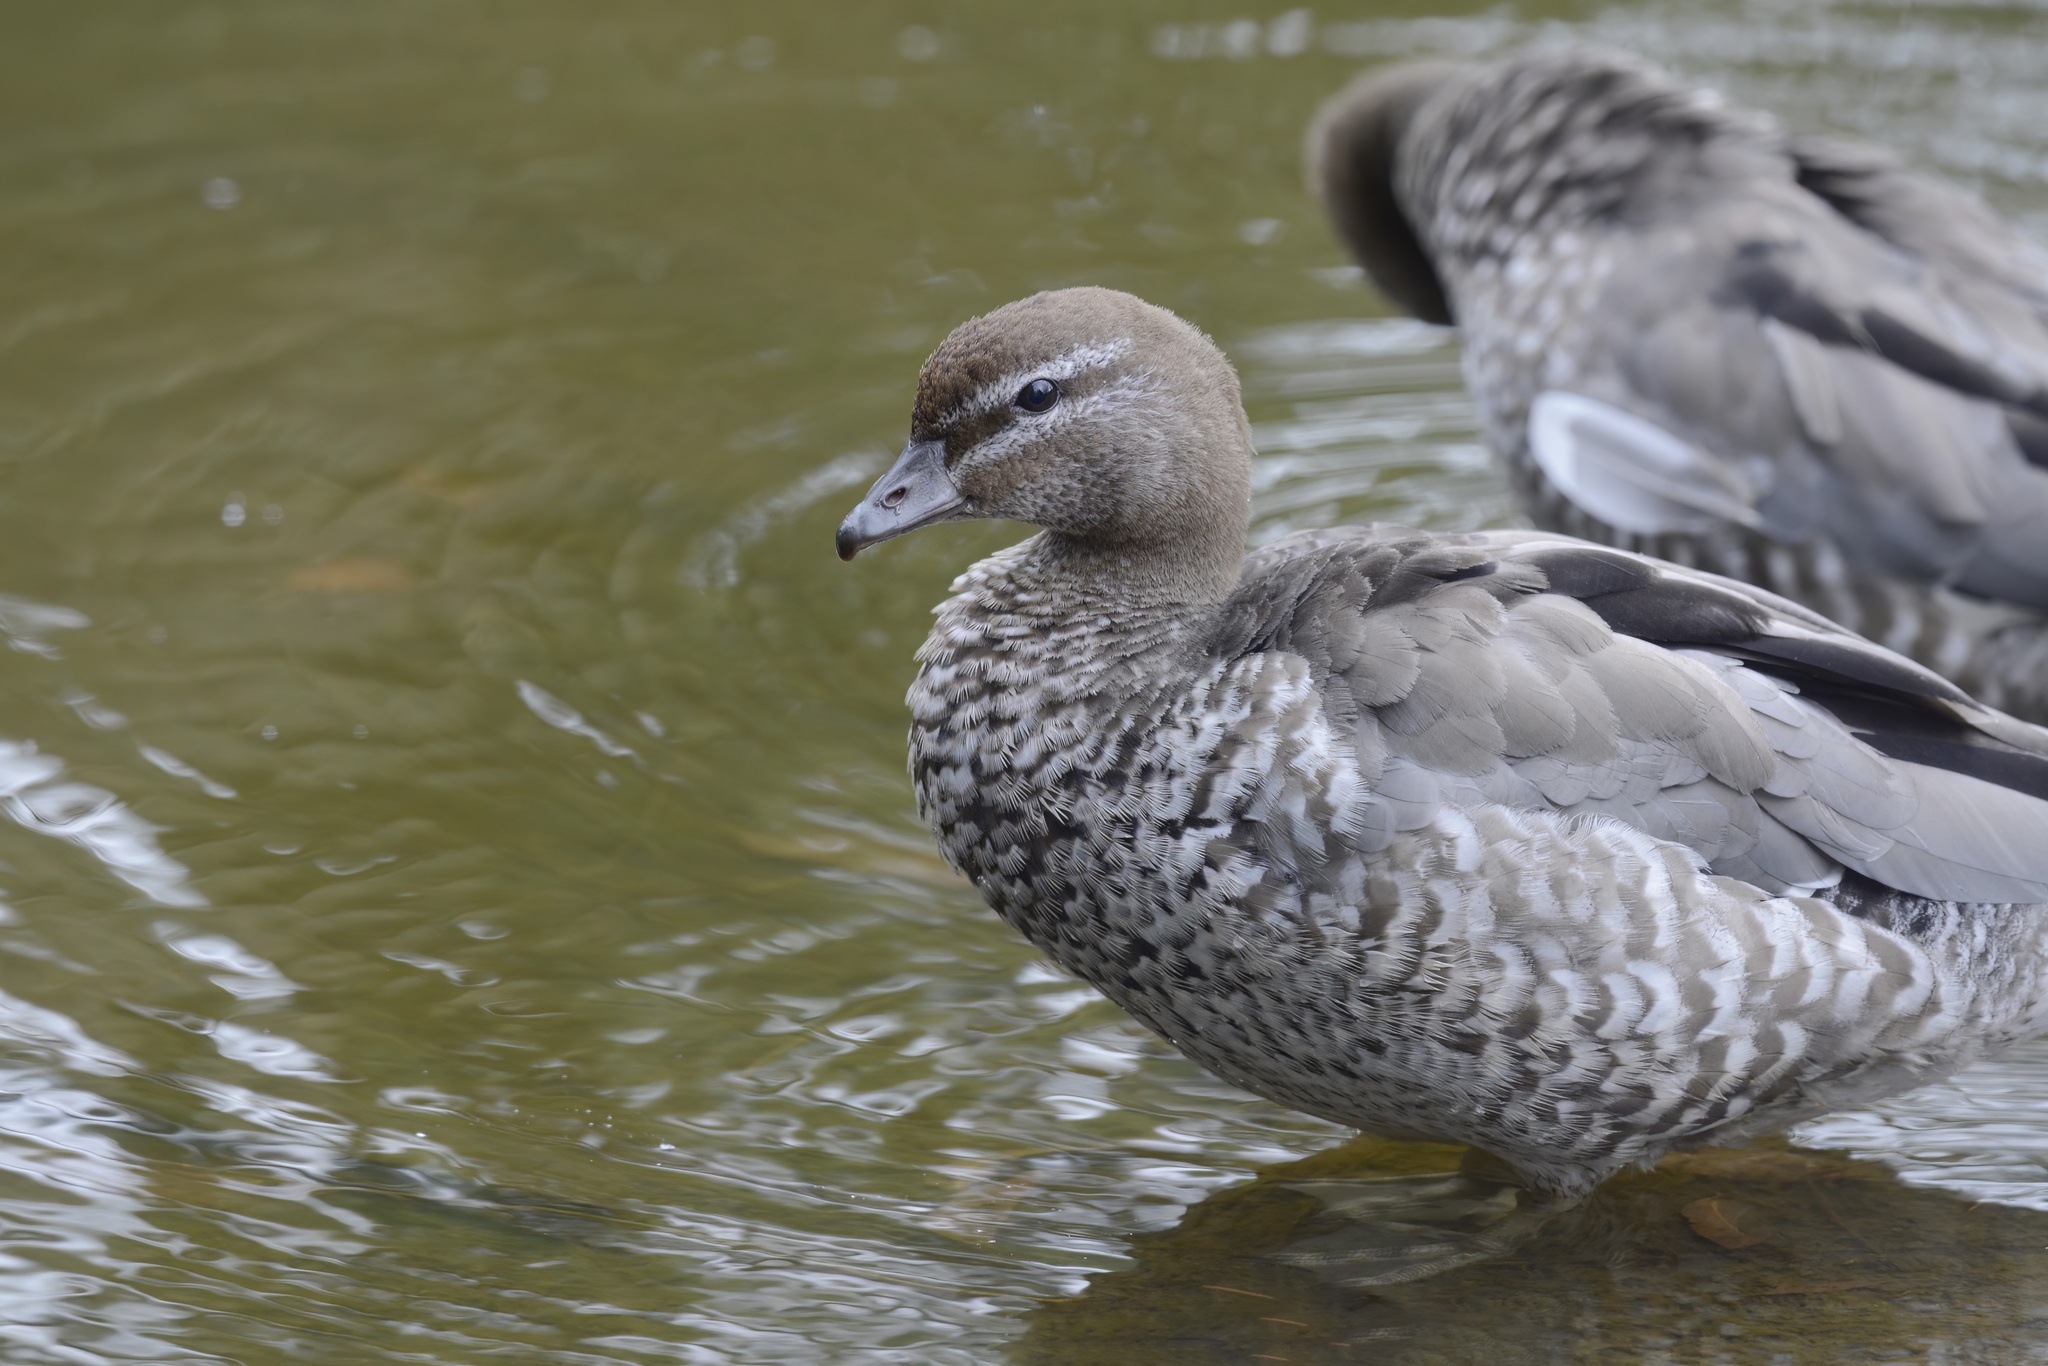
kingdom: Animalia
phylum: Chordata
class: Aves
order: Anseriformes
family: Anatidae
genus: Chenonetta
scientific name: Chenonetta jubata
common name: Maned duck
